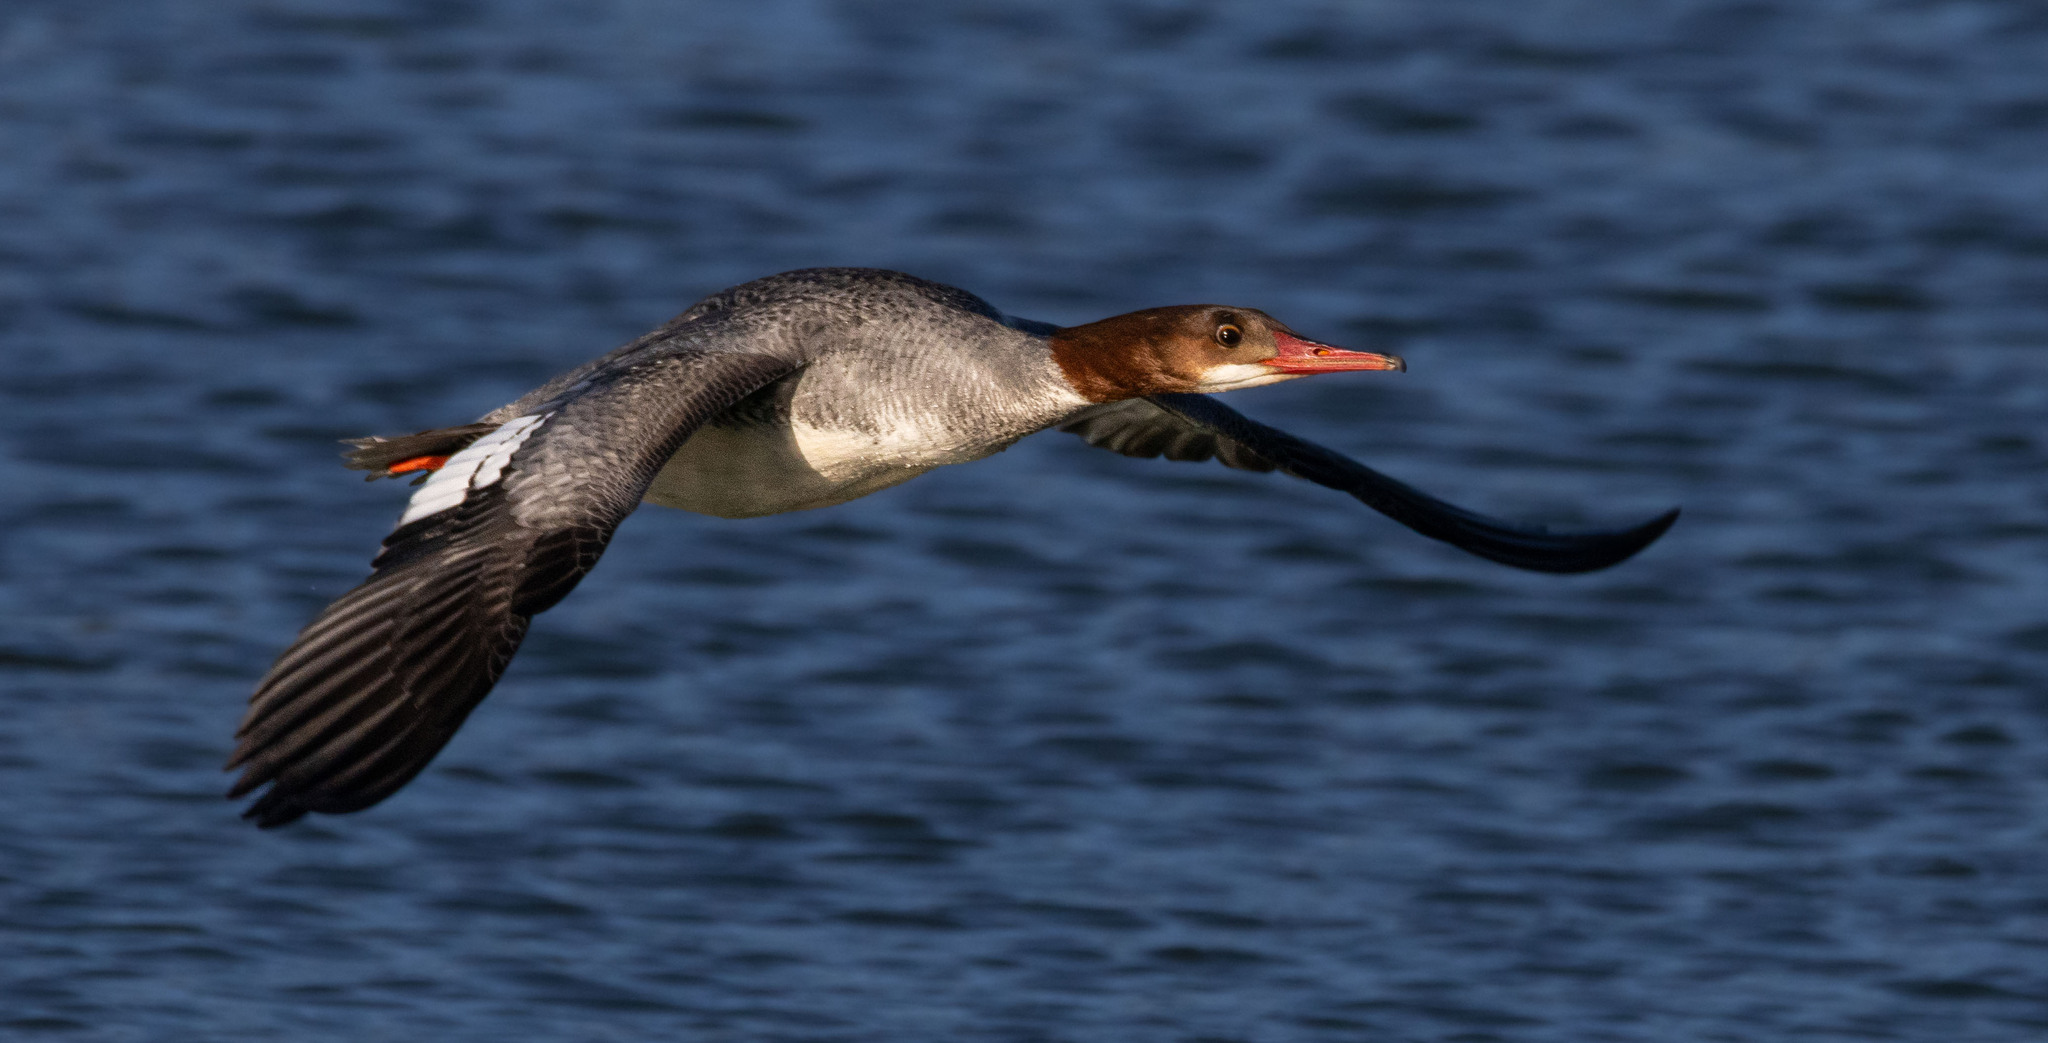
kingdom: Animalia
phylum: Chordata
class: Aves
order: Anseriformes
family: Anatidae
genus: Mergus
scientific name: Mergus merganser
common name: Common merganser
